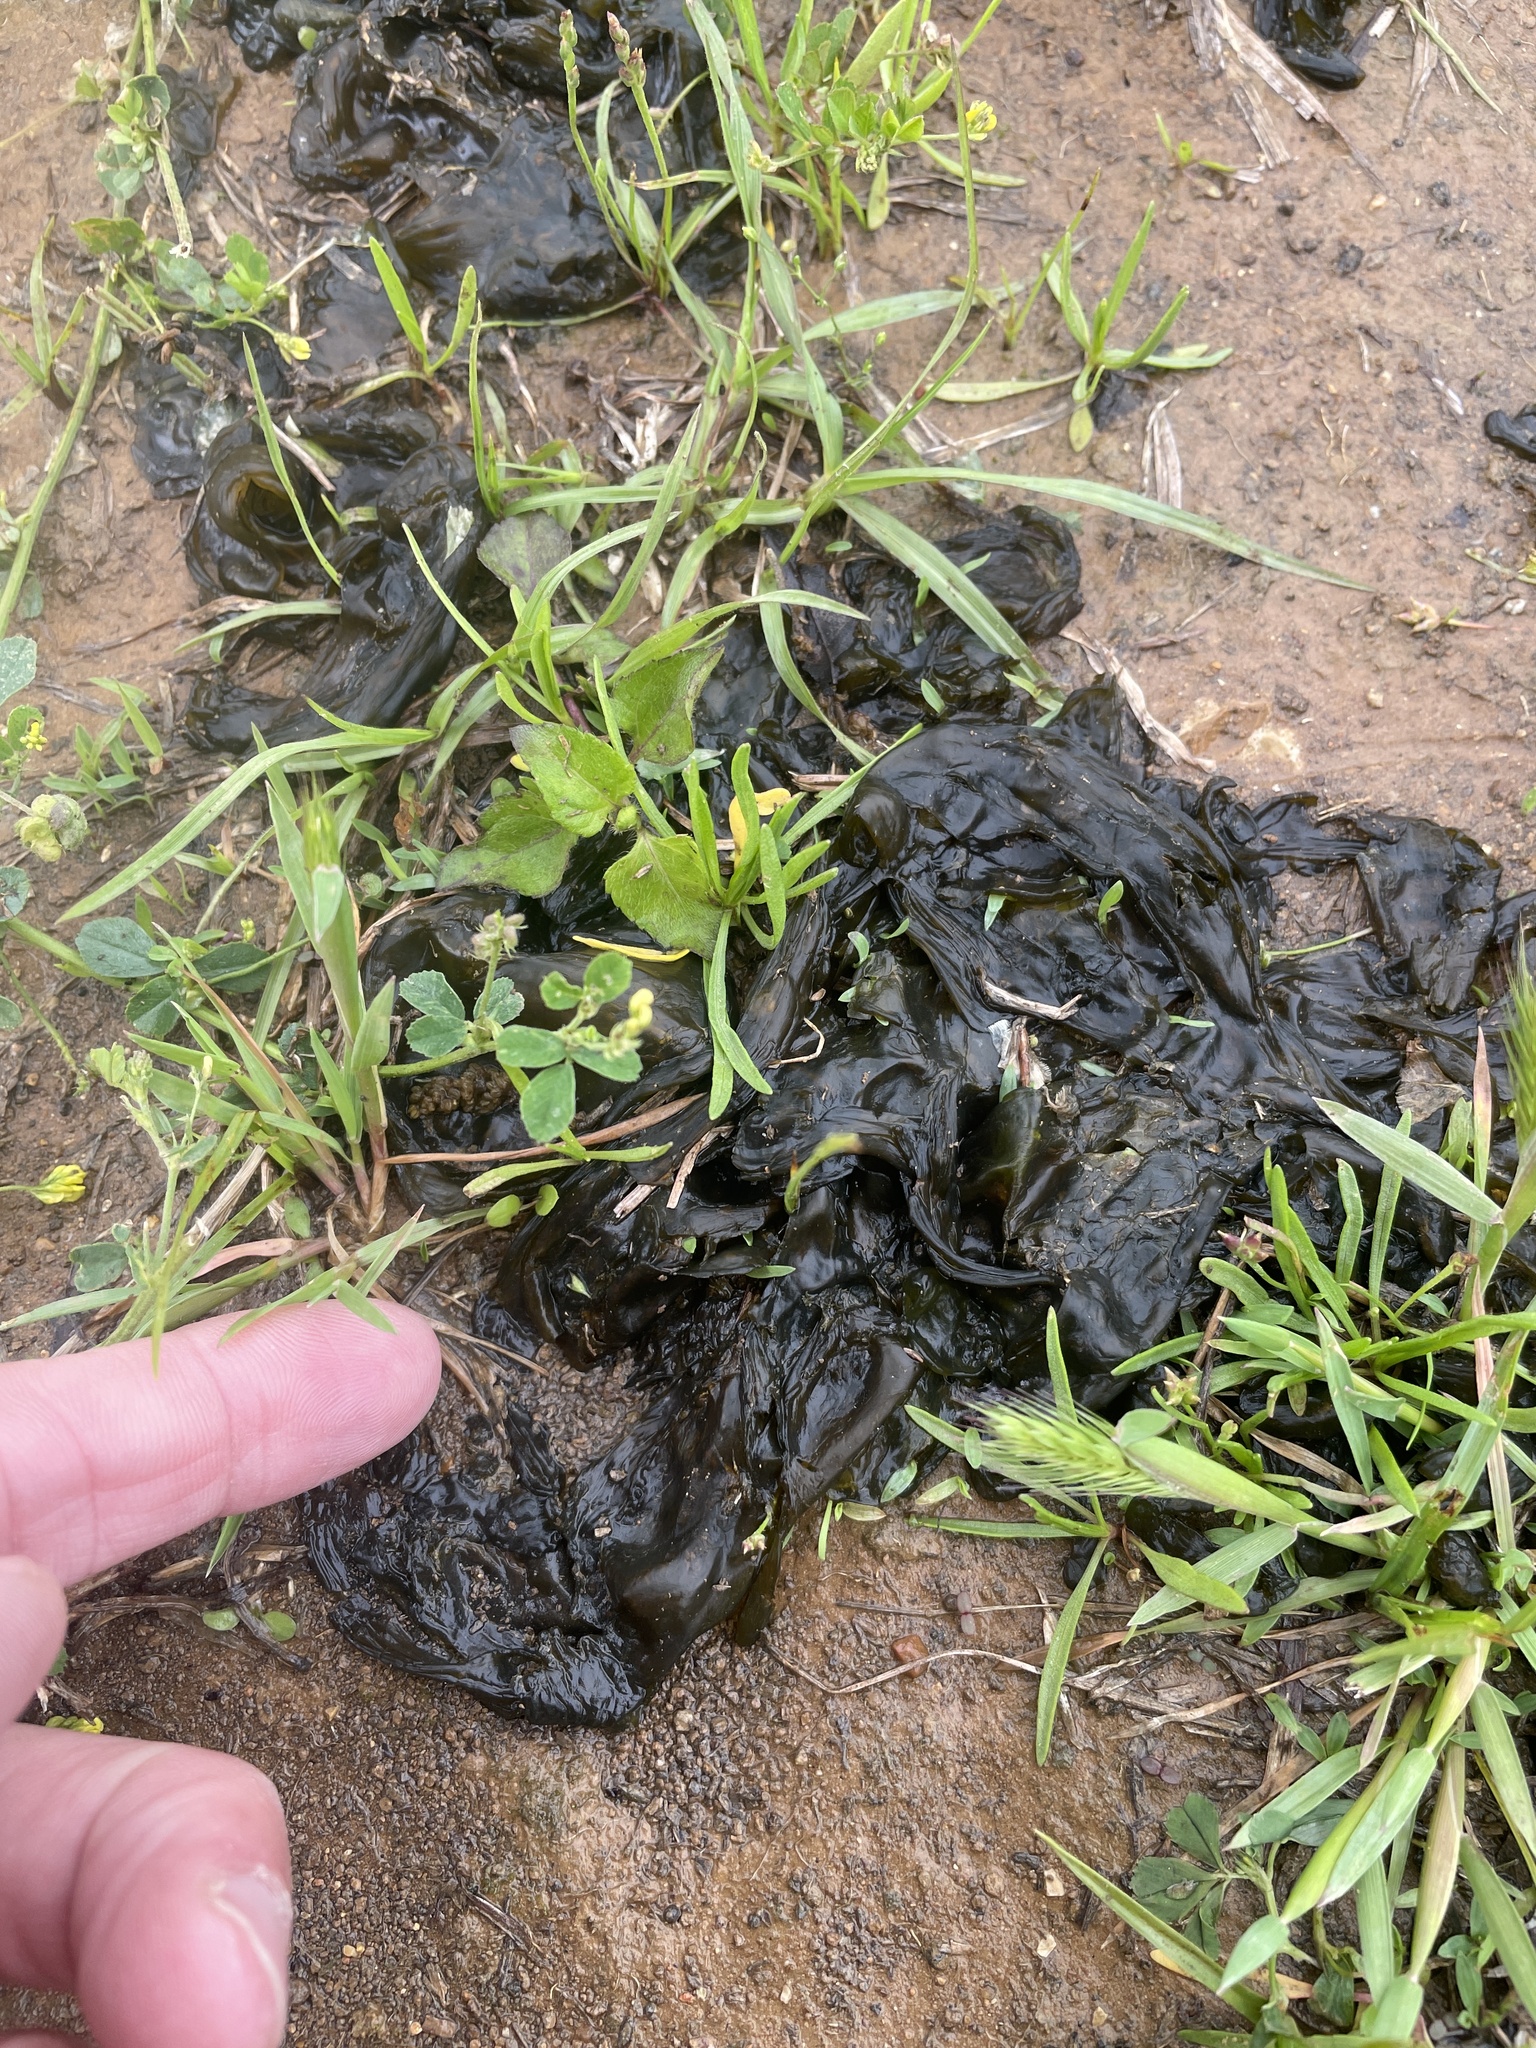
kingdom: Bacteria
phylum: Cyanobacteria
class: Cyanobacteriia
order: Cyanobacteriales
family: Nostocaceae
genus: Nostoc
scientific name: Nostoc commune
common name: Star jelly
